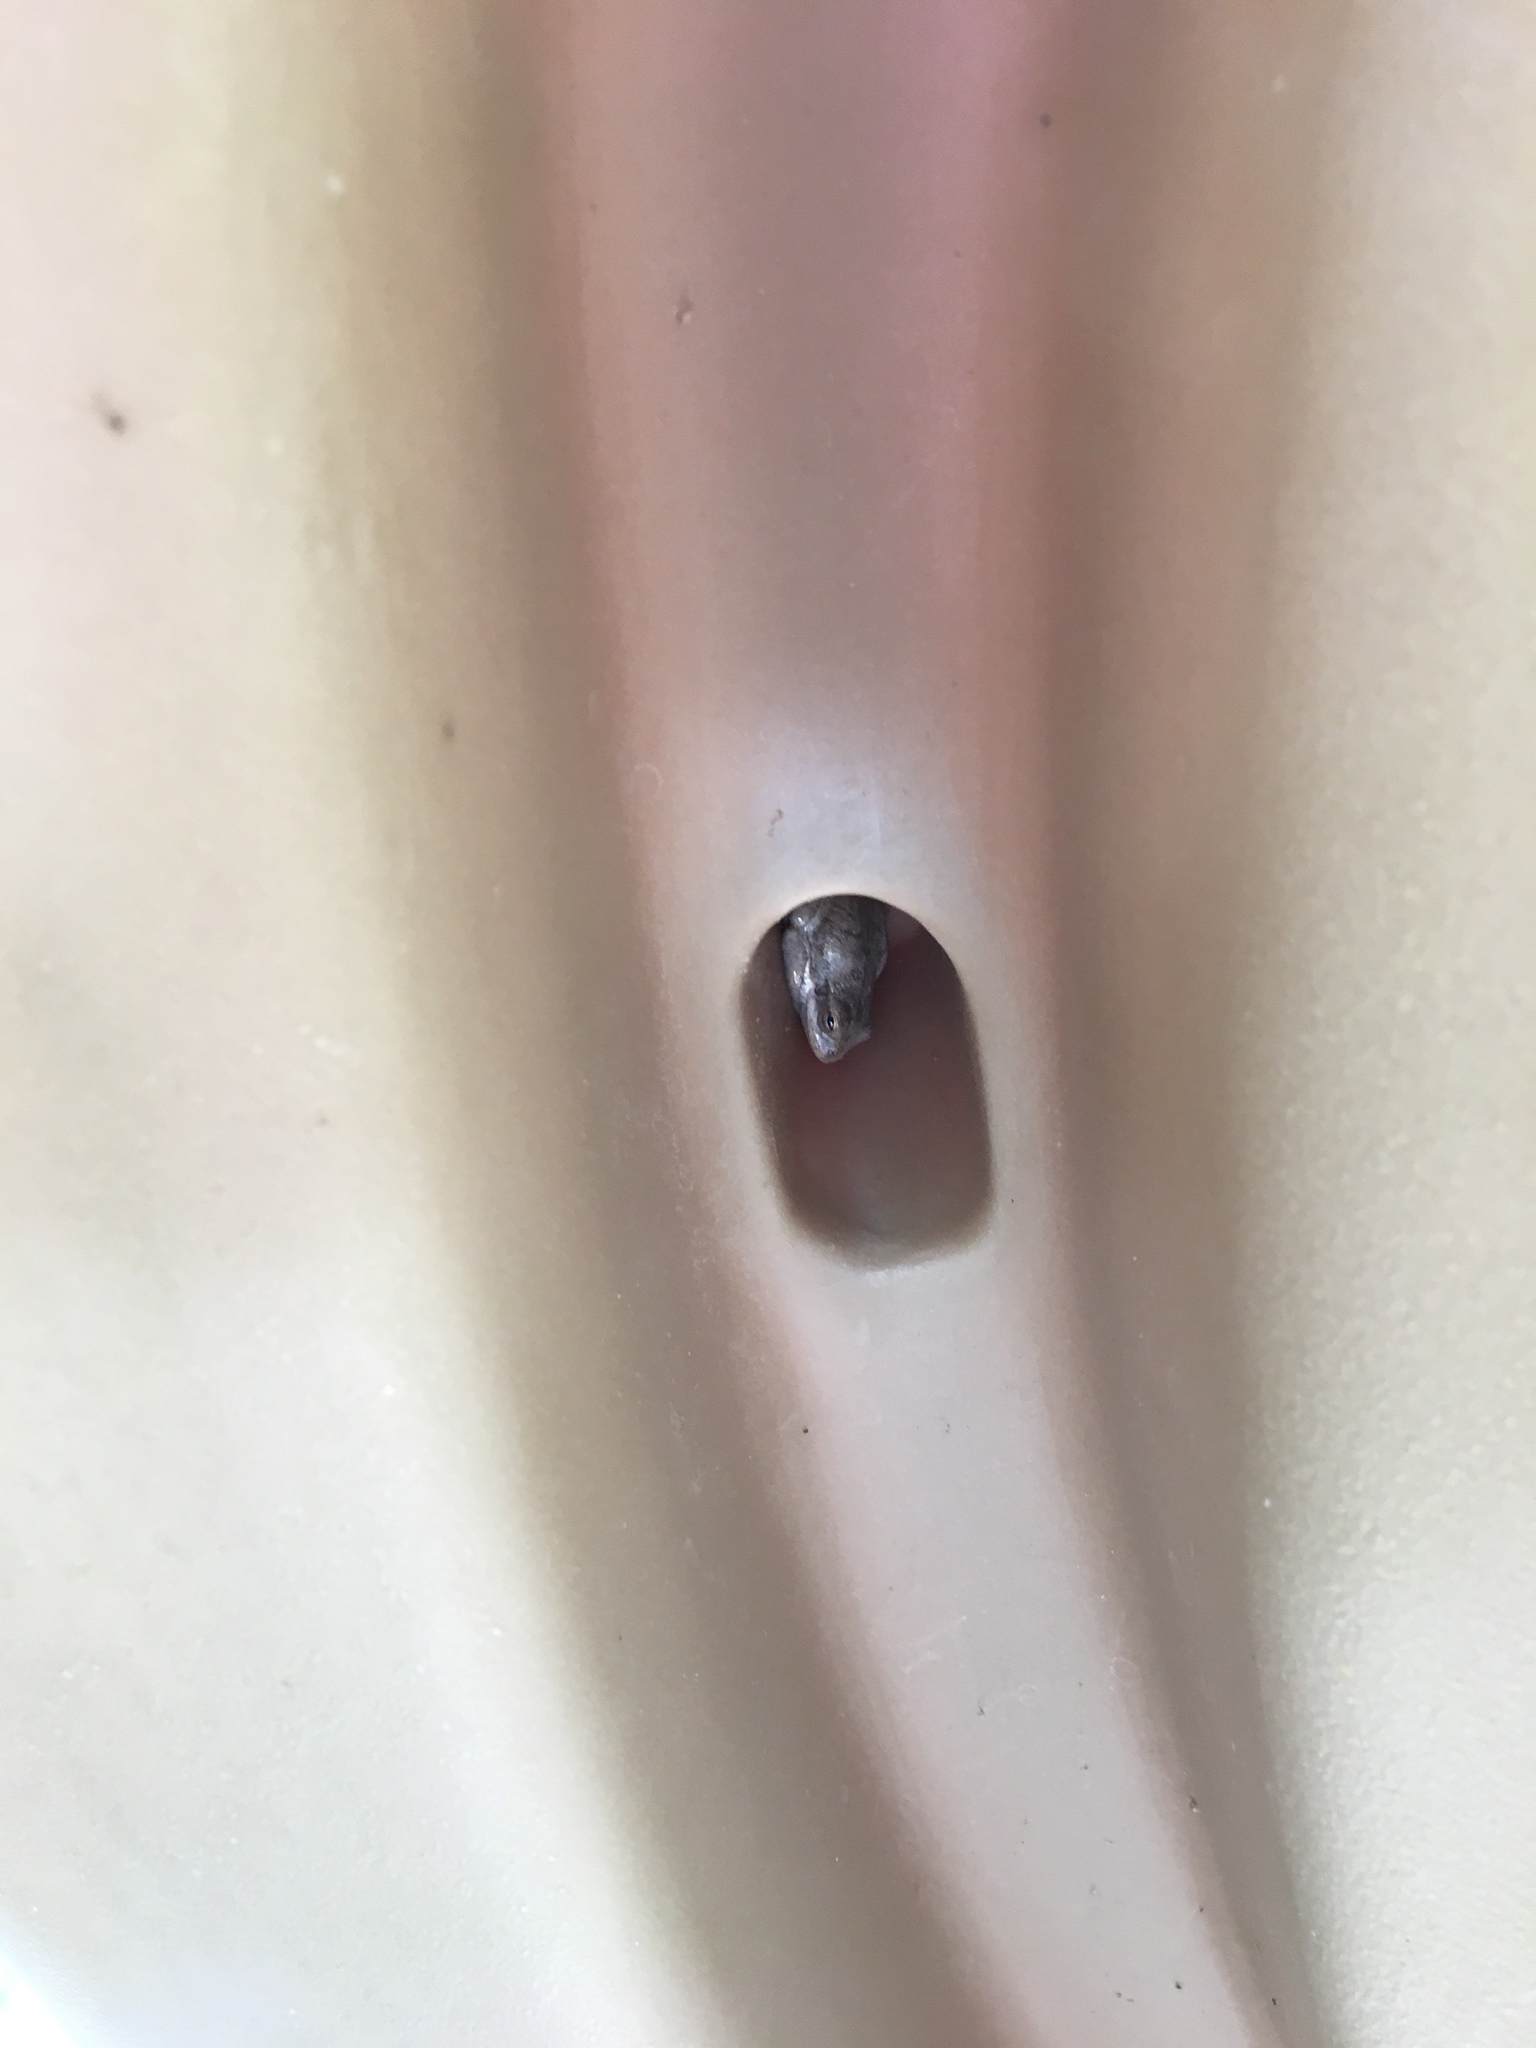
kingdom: Animalia
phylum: Chordata
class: Amphibia
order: Anura
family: Hylidae
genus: Dryophytes
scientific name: Dryophytes squirellus
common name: Squirrel treefrog
